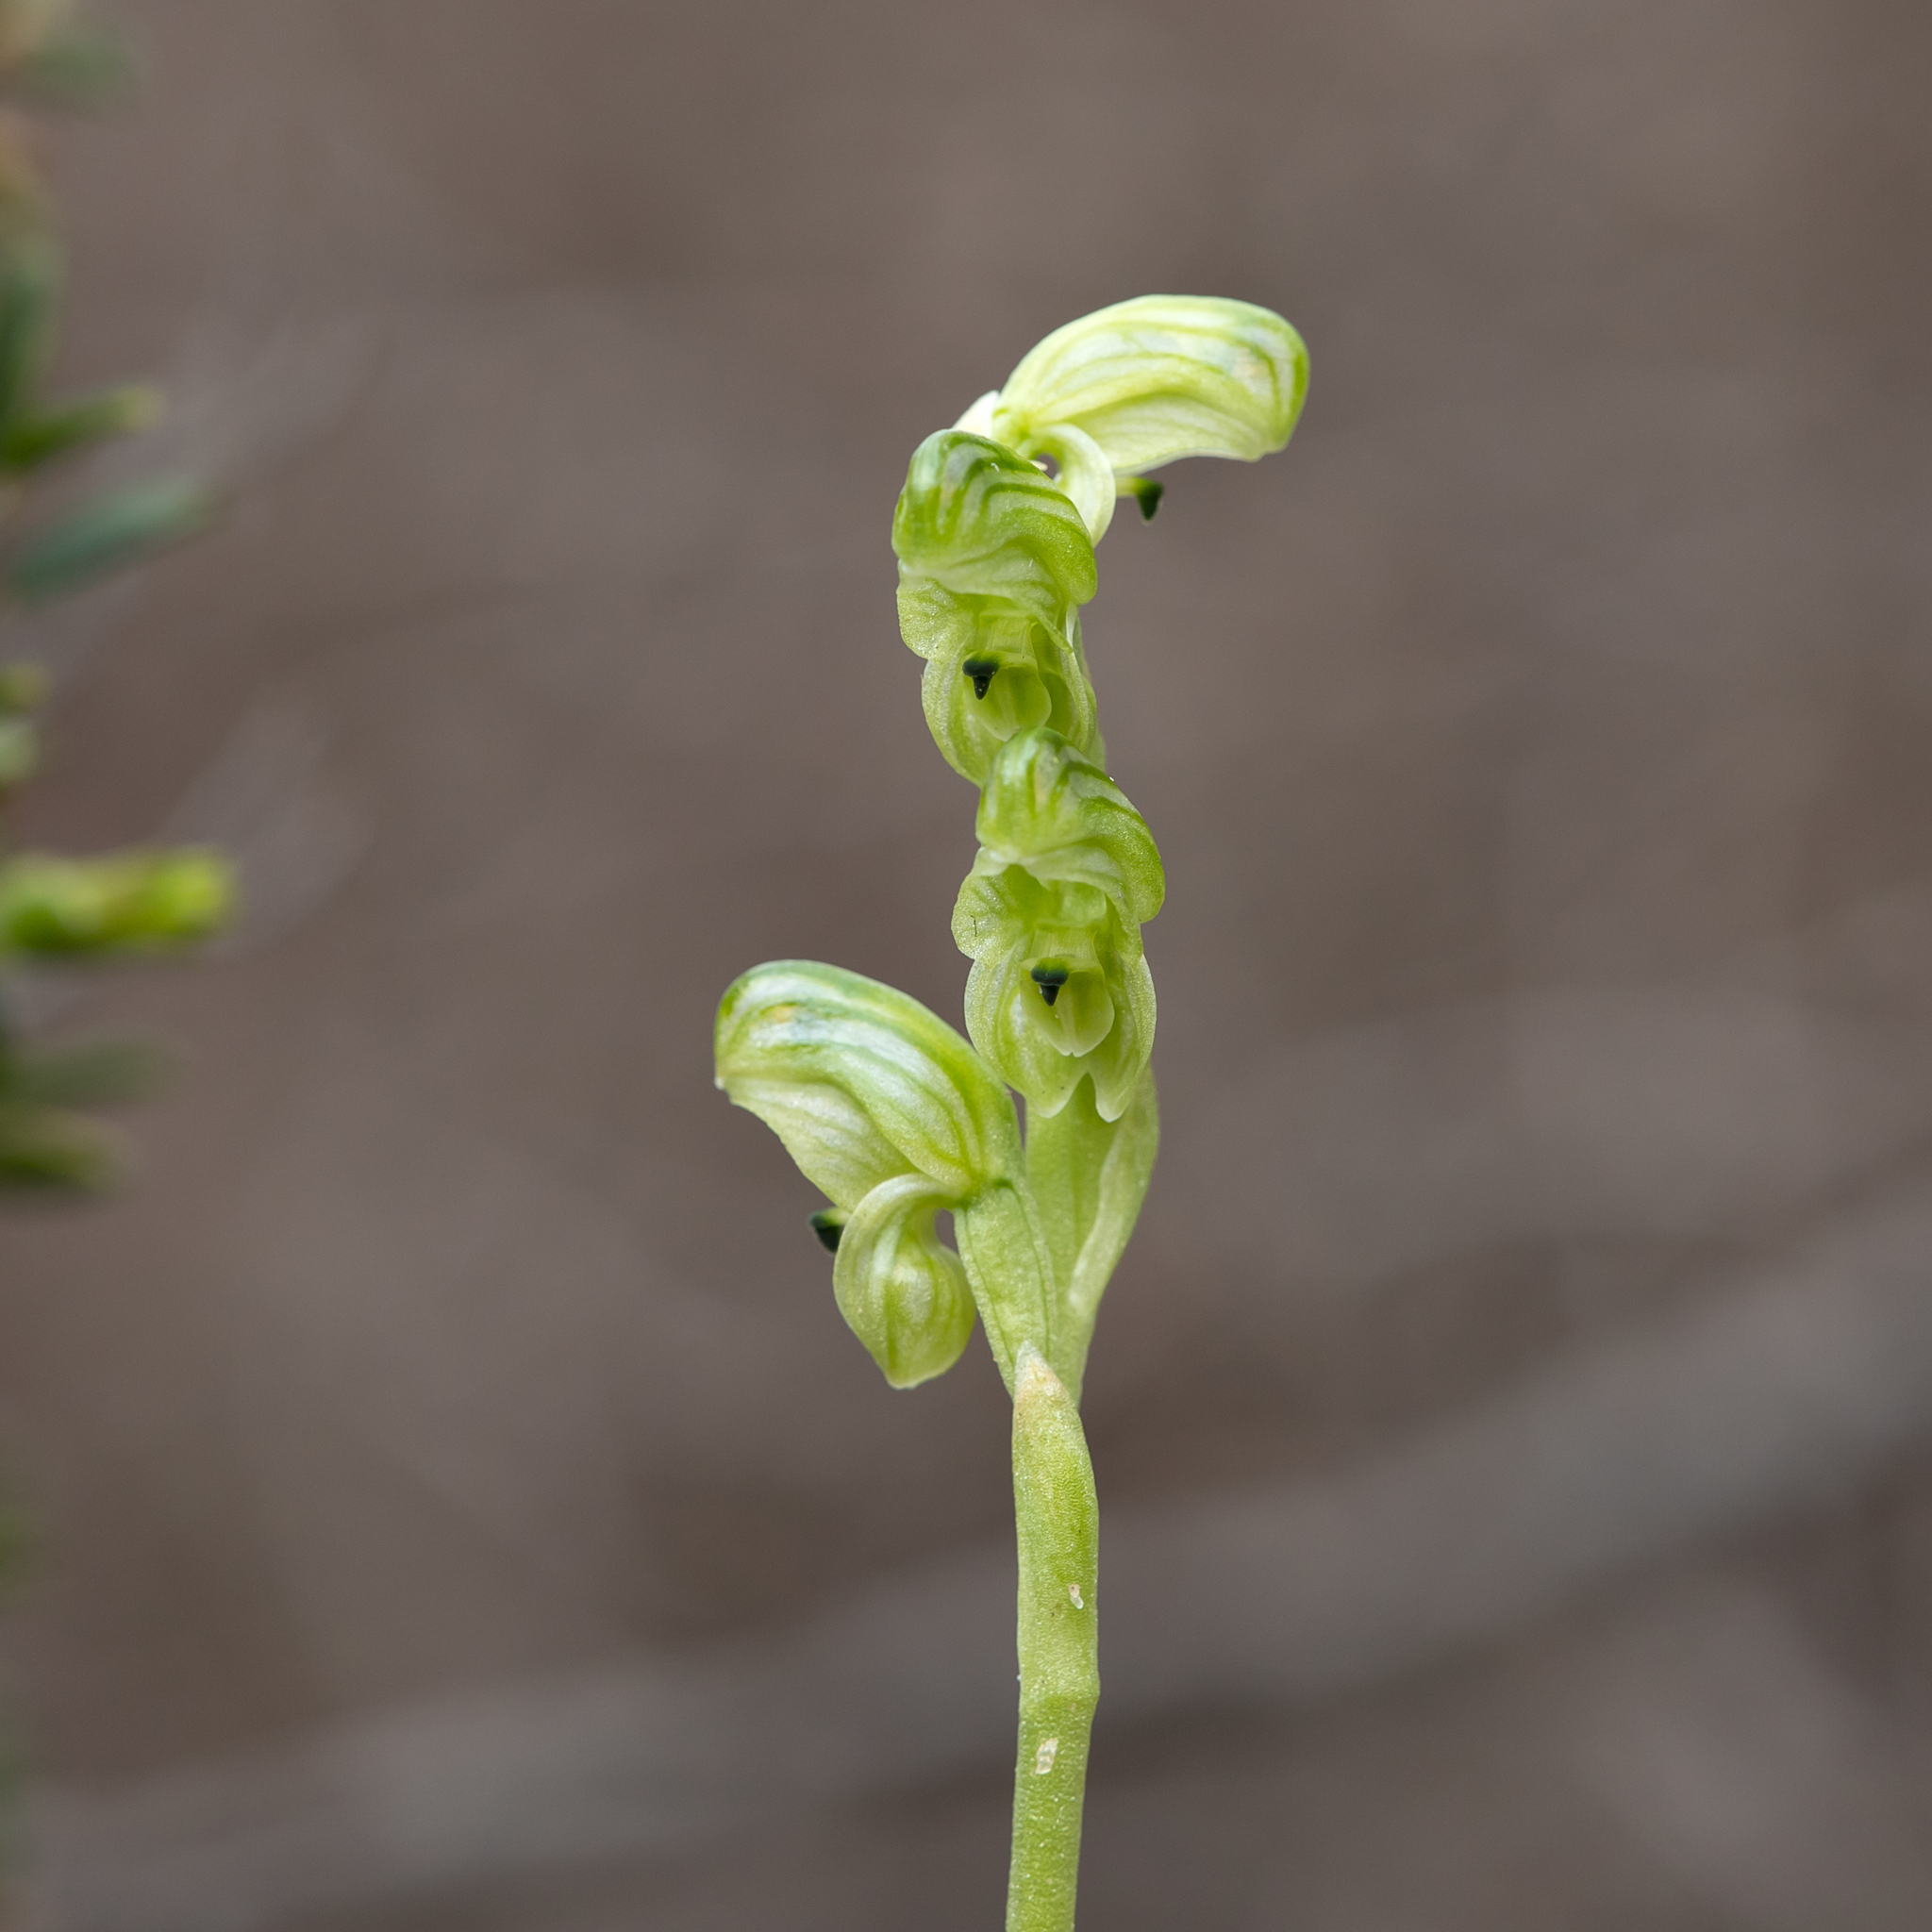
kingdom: Plantae
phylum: Tracheophyta
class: Liliopsida
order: Asparagales
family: Orchidaceae
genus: Pterostylis
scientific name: Pterostylis cycnocephala
